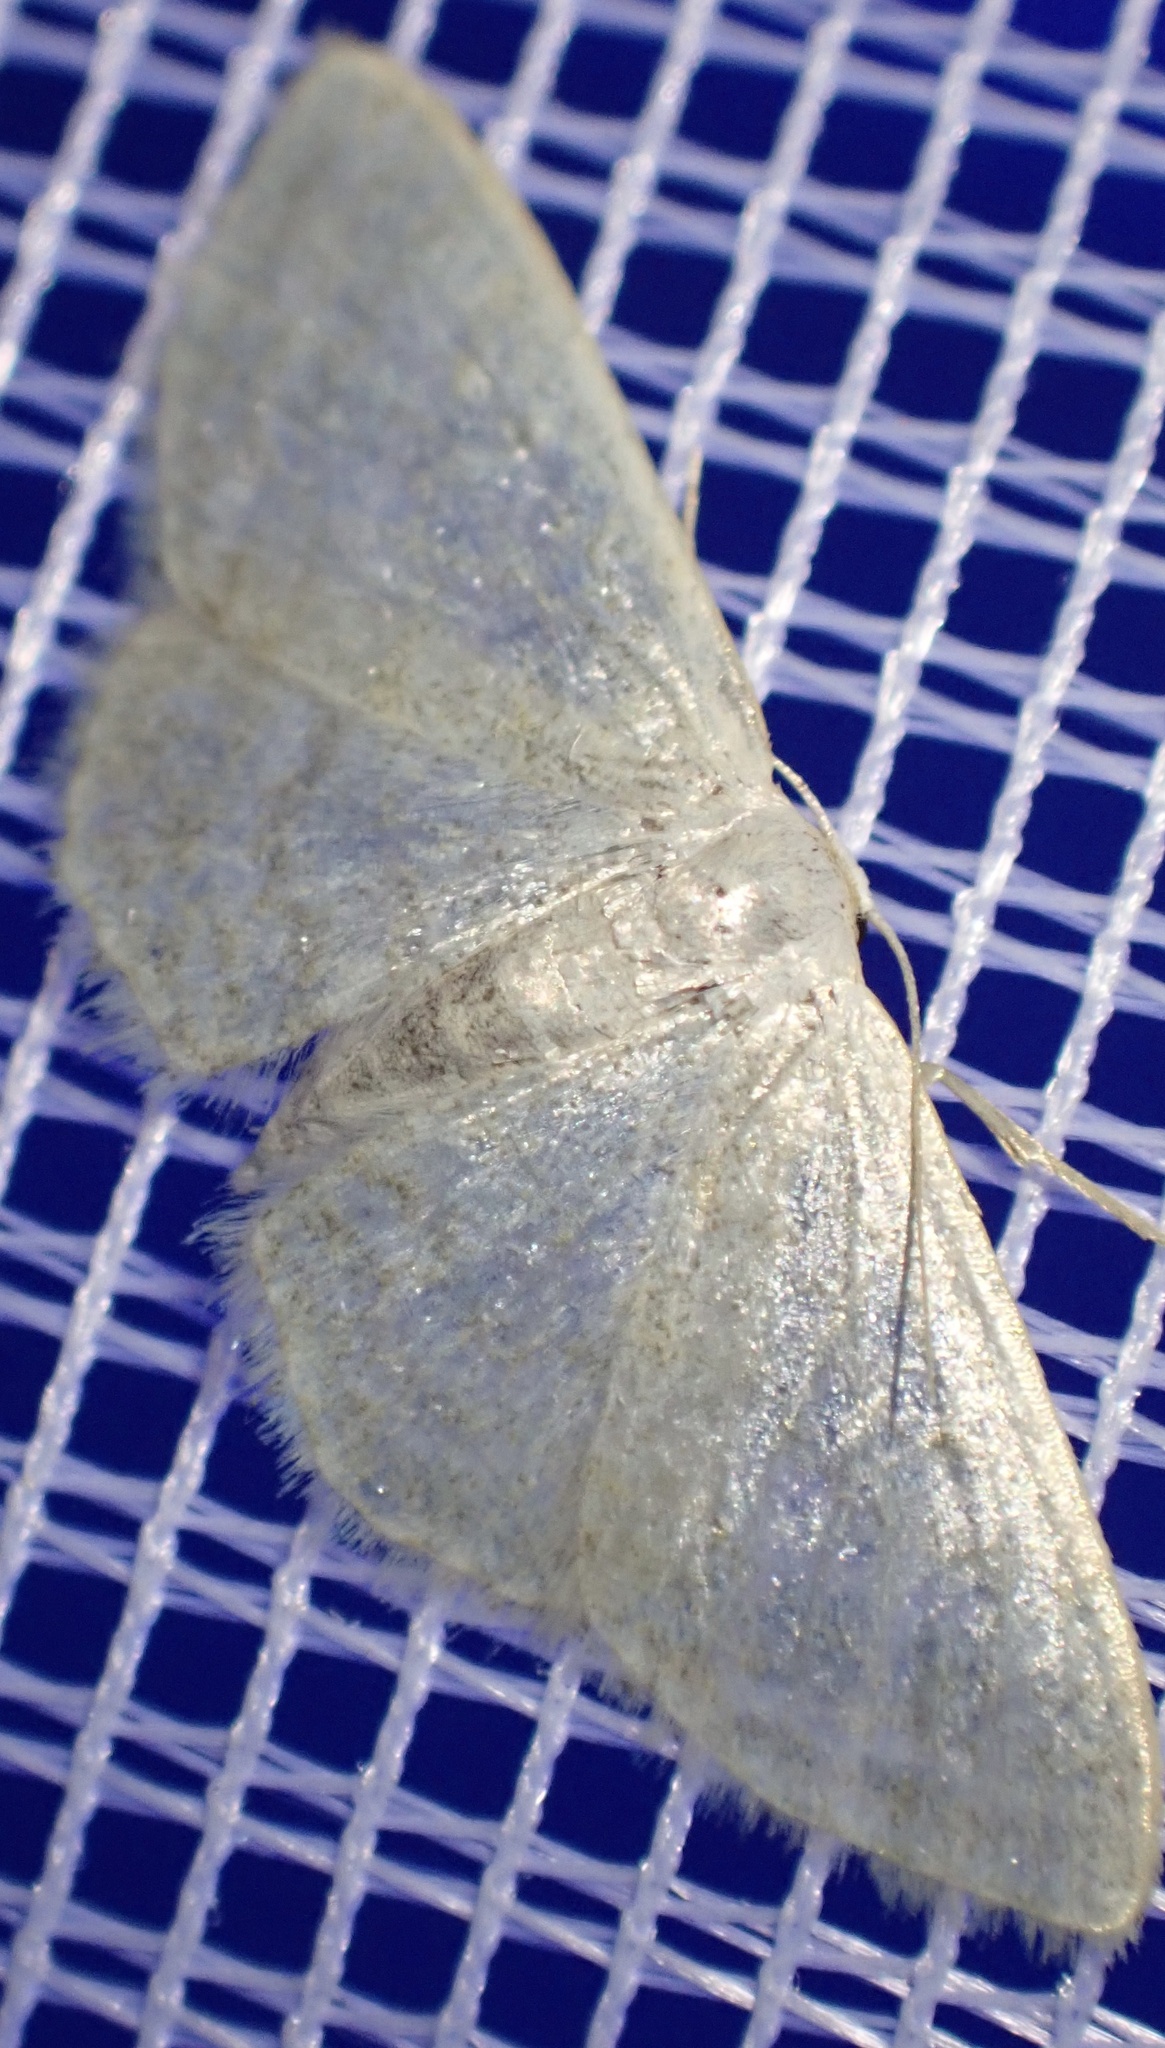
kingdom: Animalia
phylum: Arthropoda
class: Insecta
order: Lepidoptera
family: Geometridae
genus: Idaea
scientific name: Idaea subsericeata
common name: Satin wave
